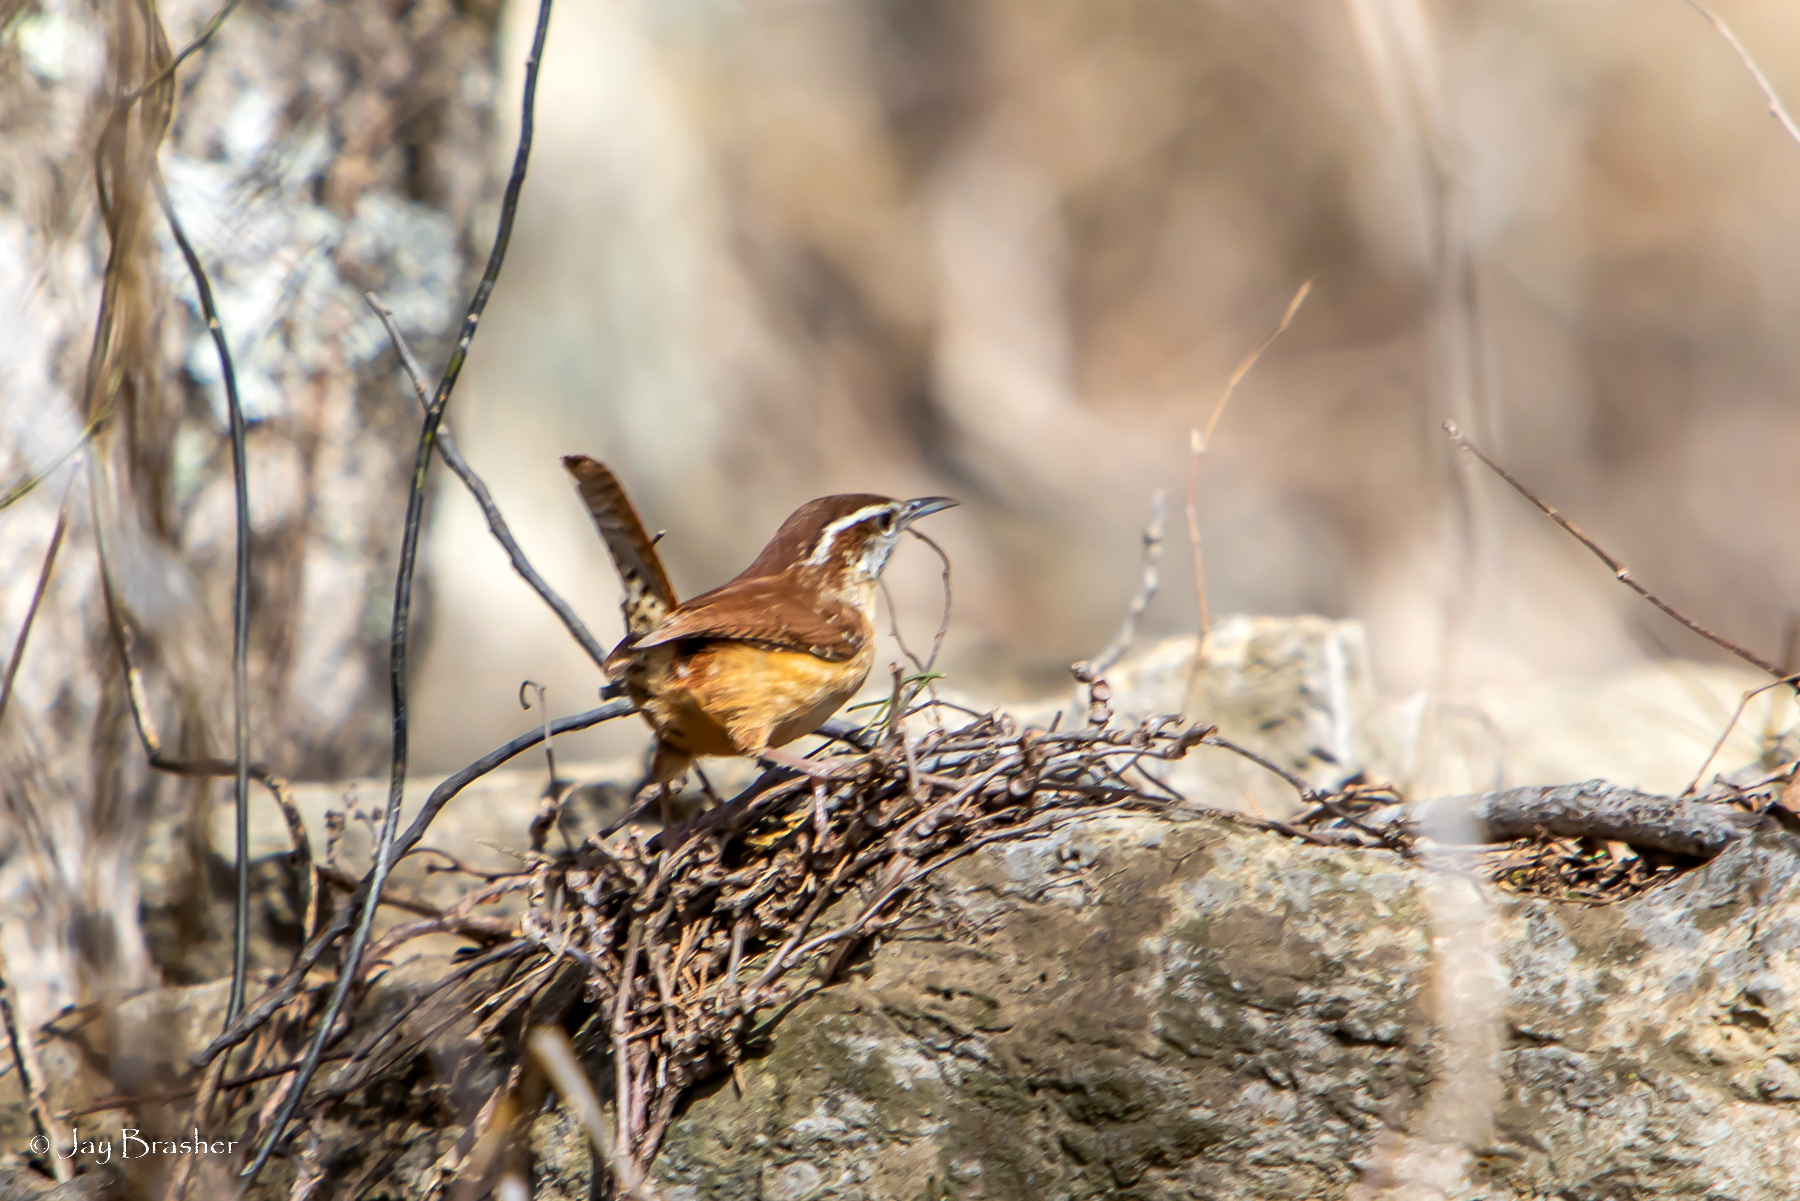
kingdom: Animalia
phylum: Chordata
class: Aves
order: Passeriformes
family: Troglodytidae
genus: Thryothorus
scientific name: Thryothorus ludovicianus
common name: Carolina wren
